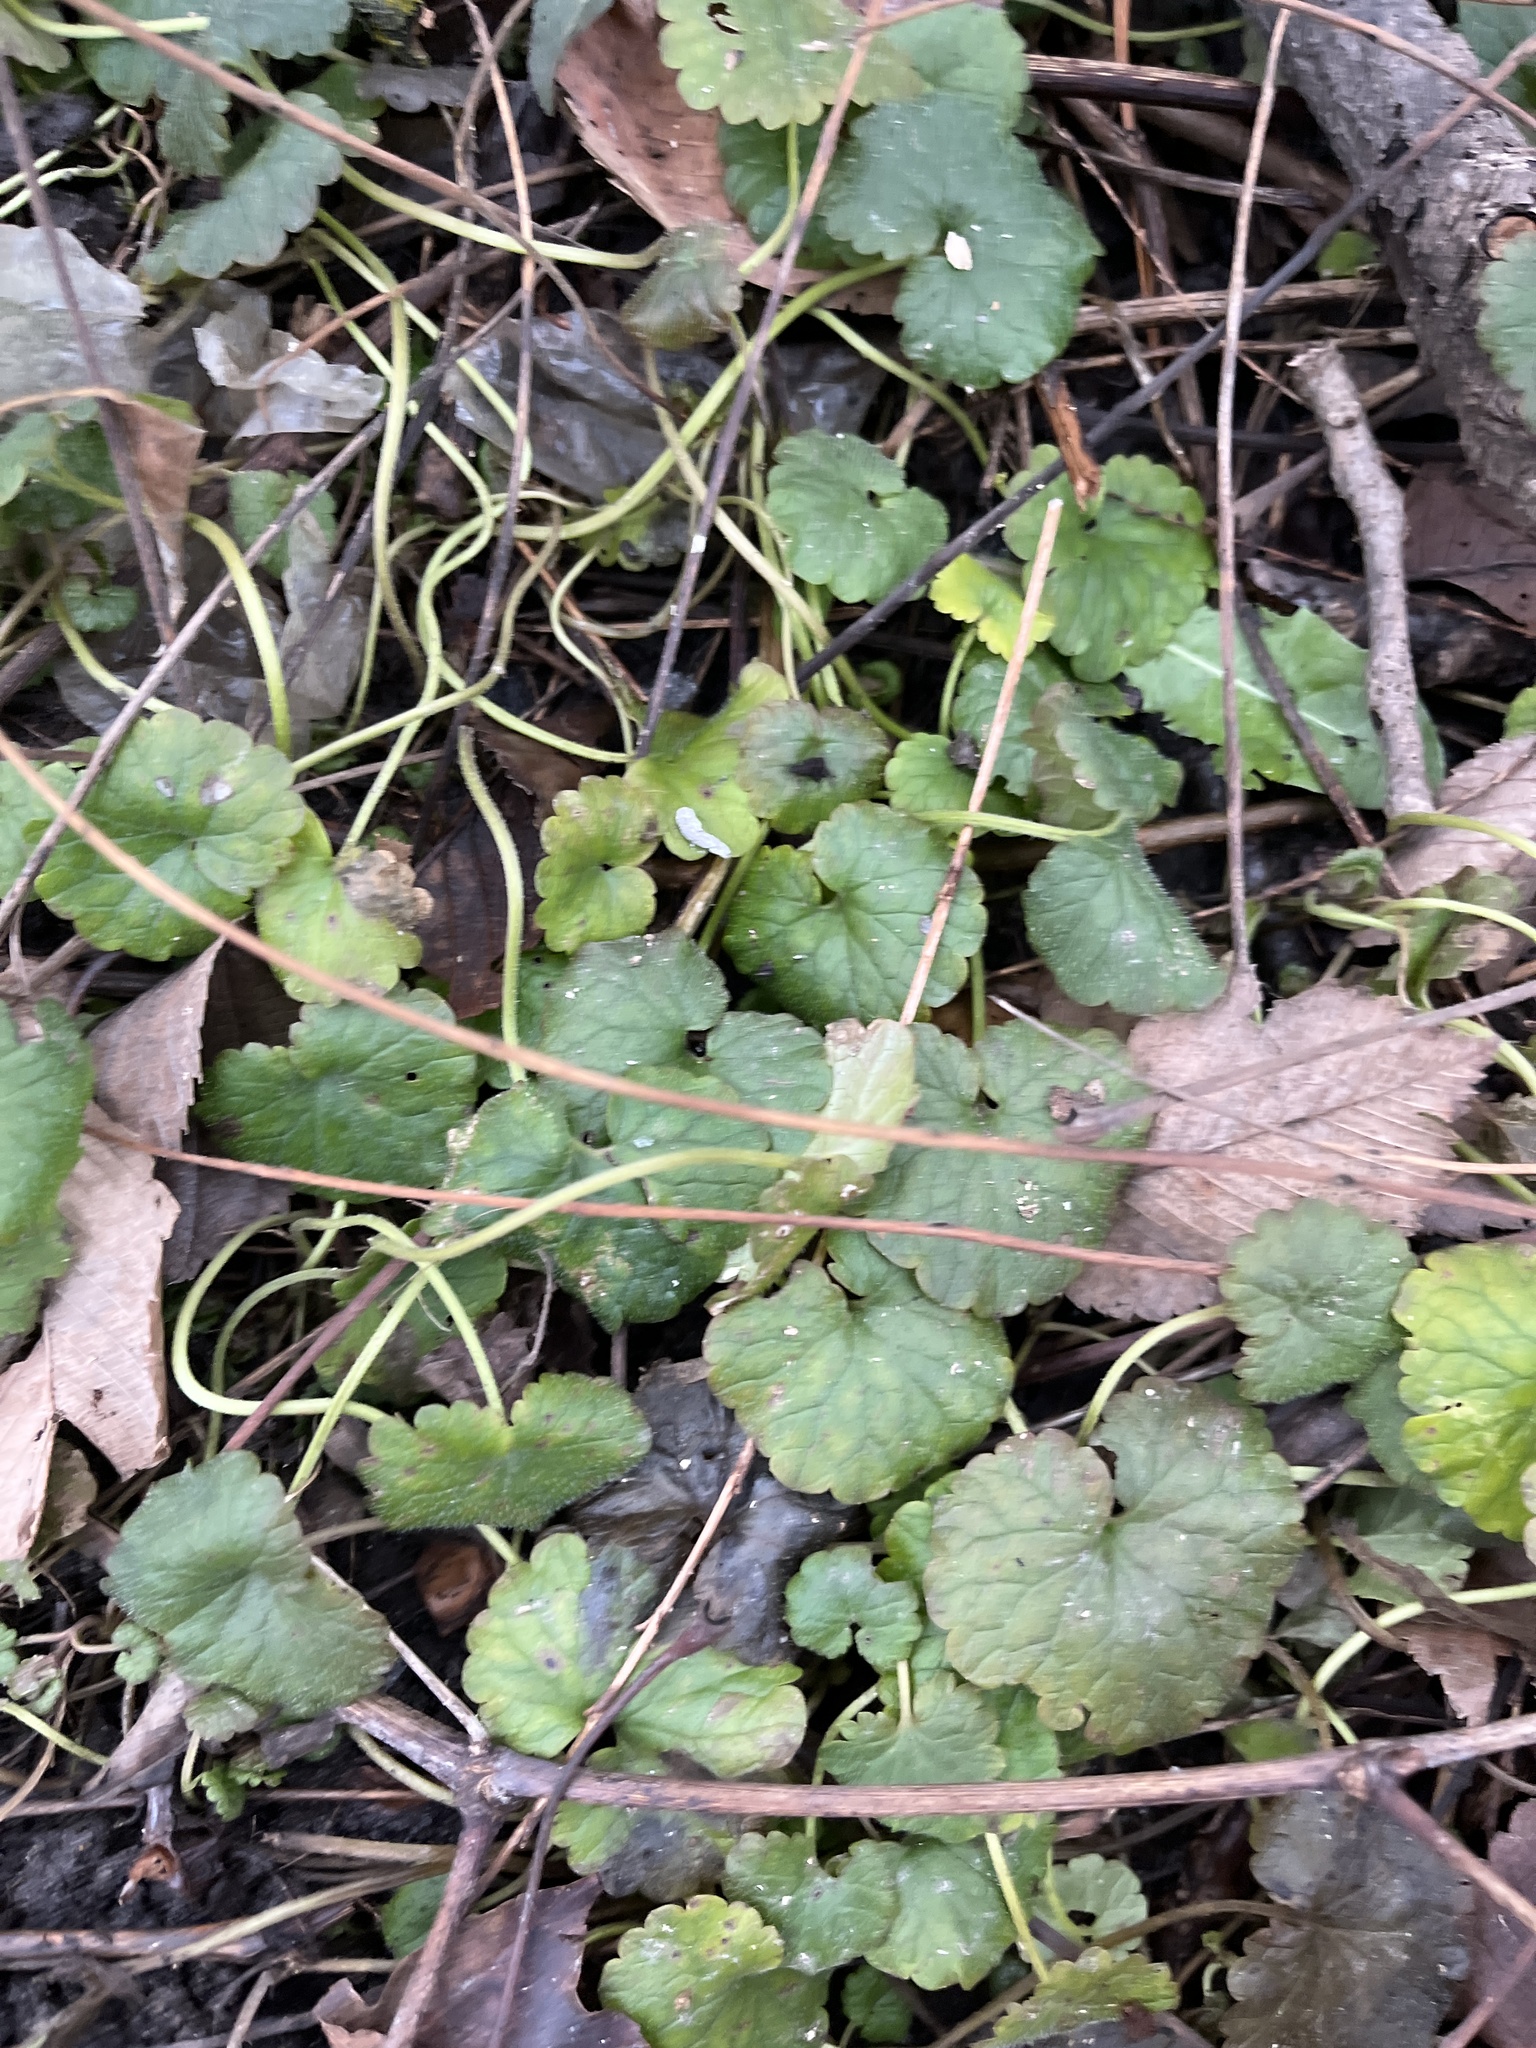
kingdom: Plantae
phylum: Tracheophyta
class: Magnoliopsida
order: Lamiales
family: Lamiaceae
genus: Glechoma
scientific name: Glechoma hederacea
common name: Ground ivy
